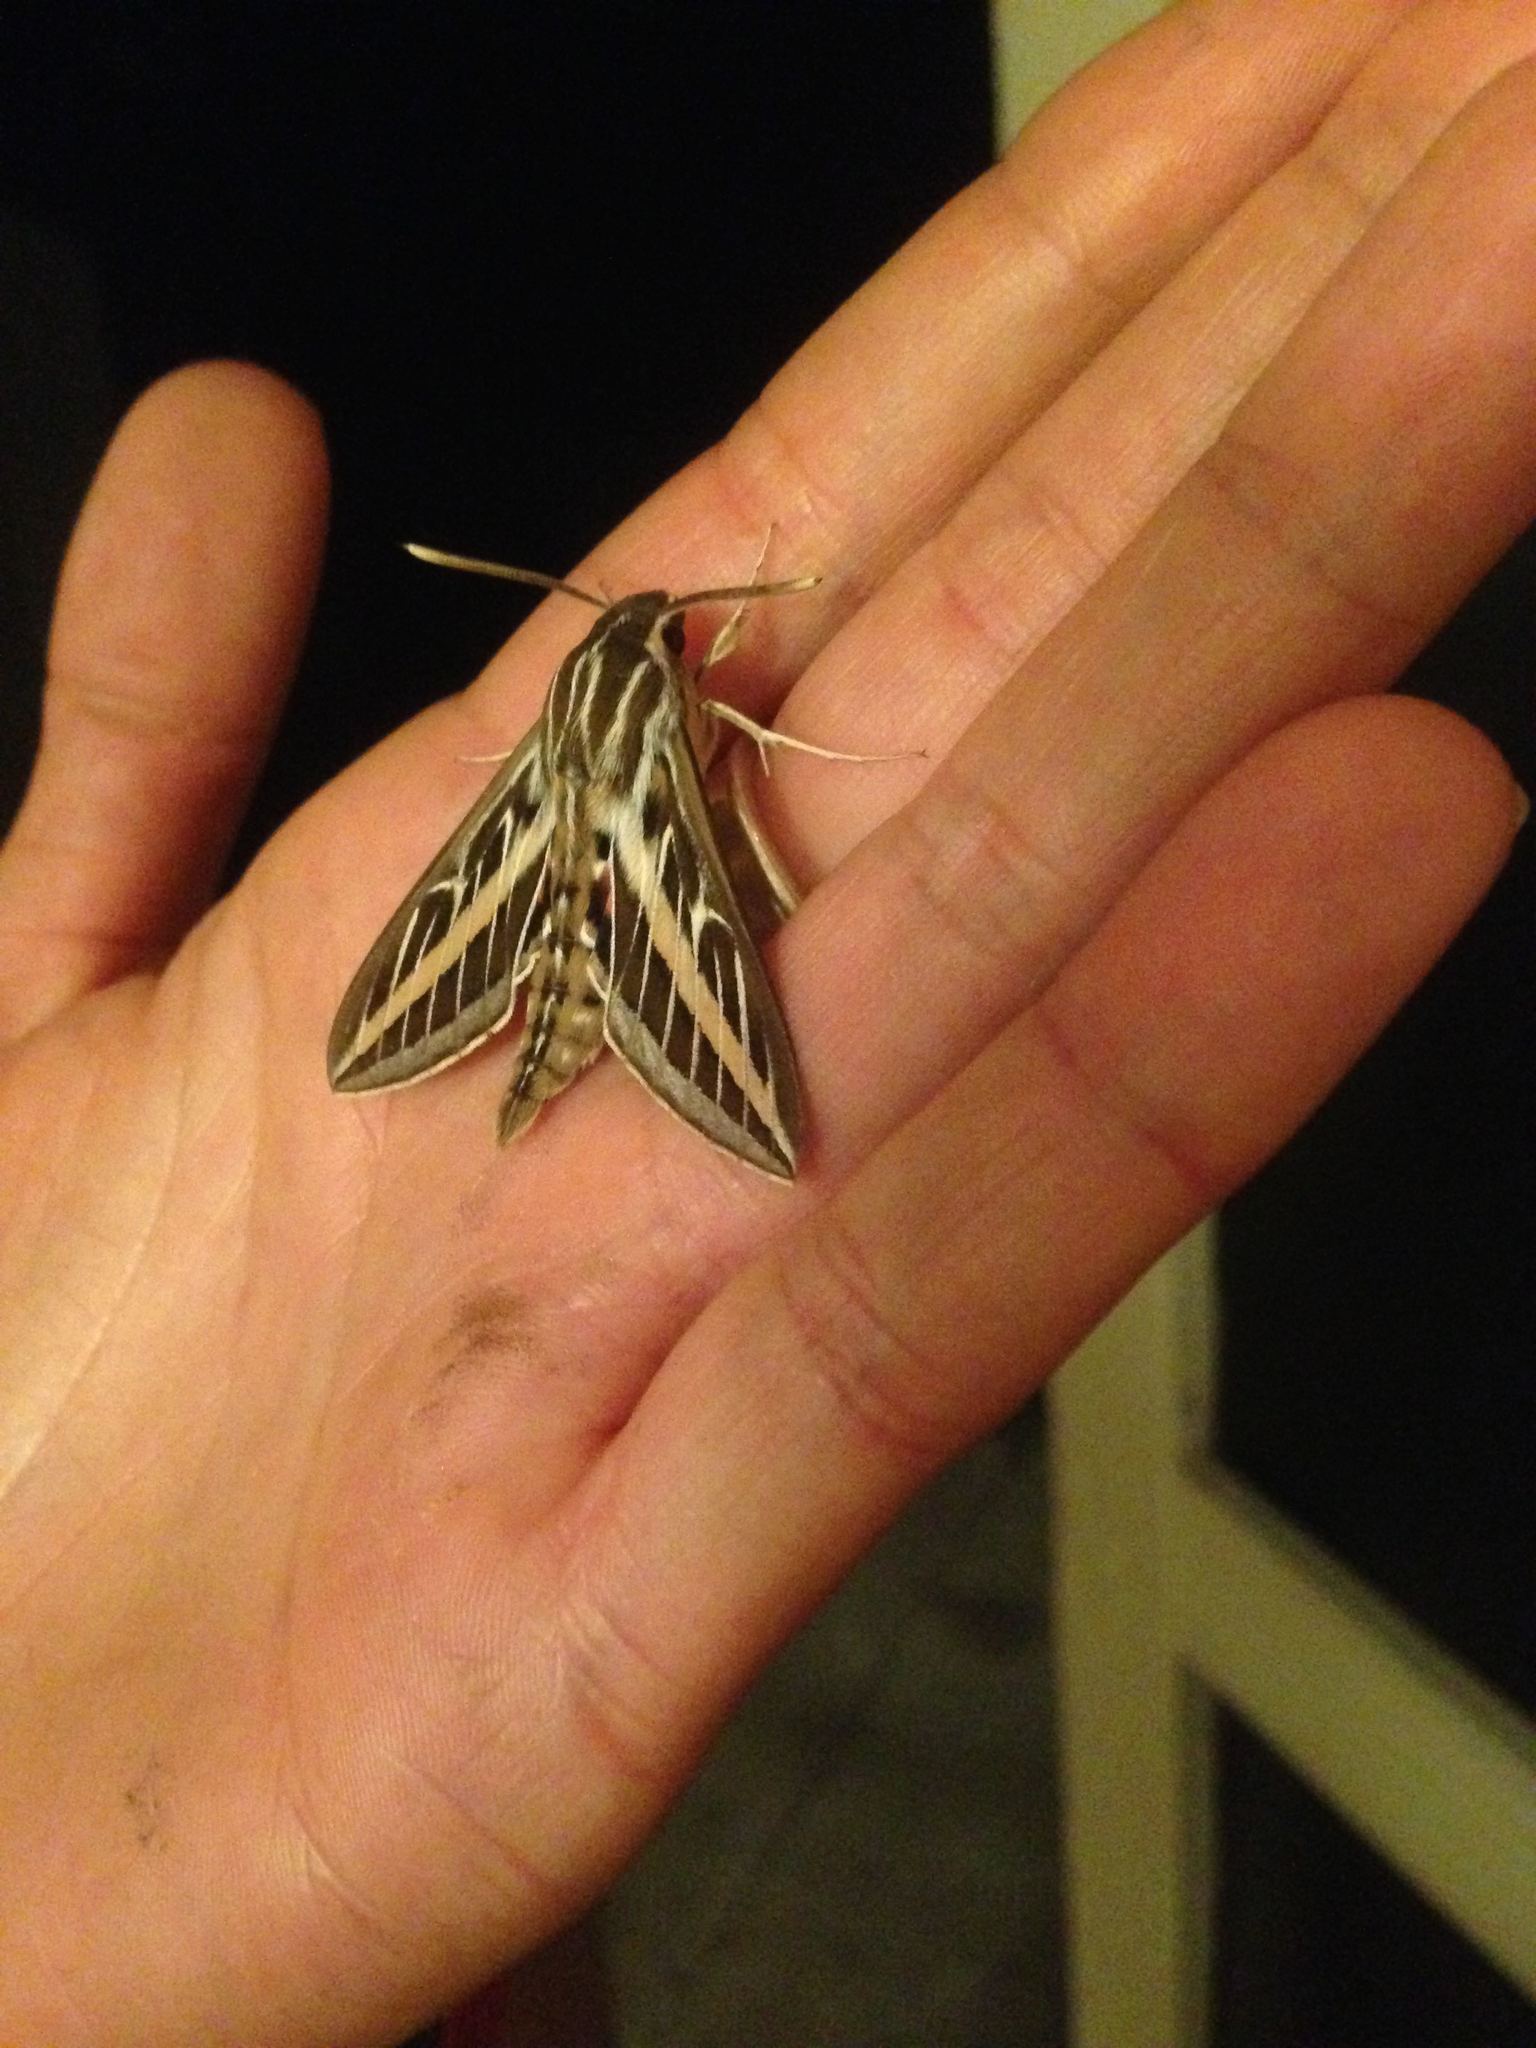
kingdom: Animalia
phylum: Arthropoda
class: Insecta
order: Lepidoptera
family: Sphingidae
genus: Hyles
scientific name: Hyles lineata
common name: White-lined sphinx
